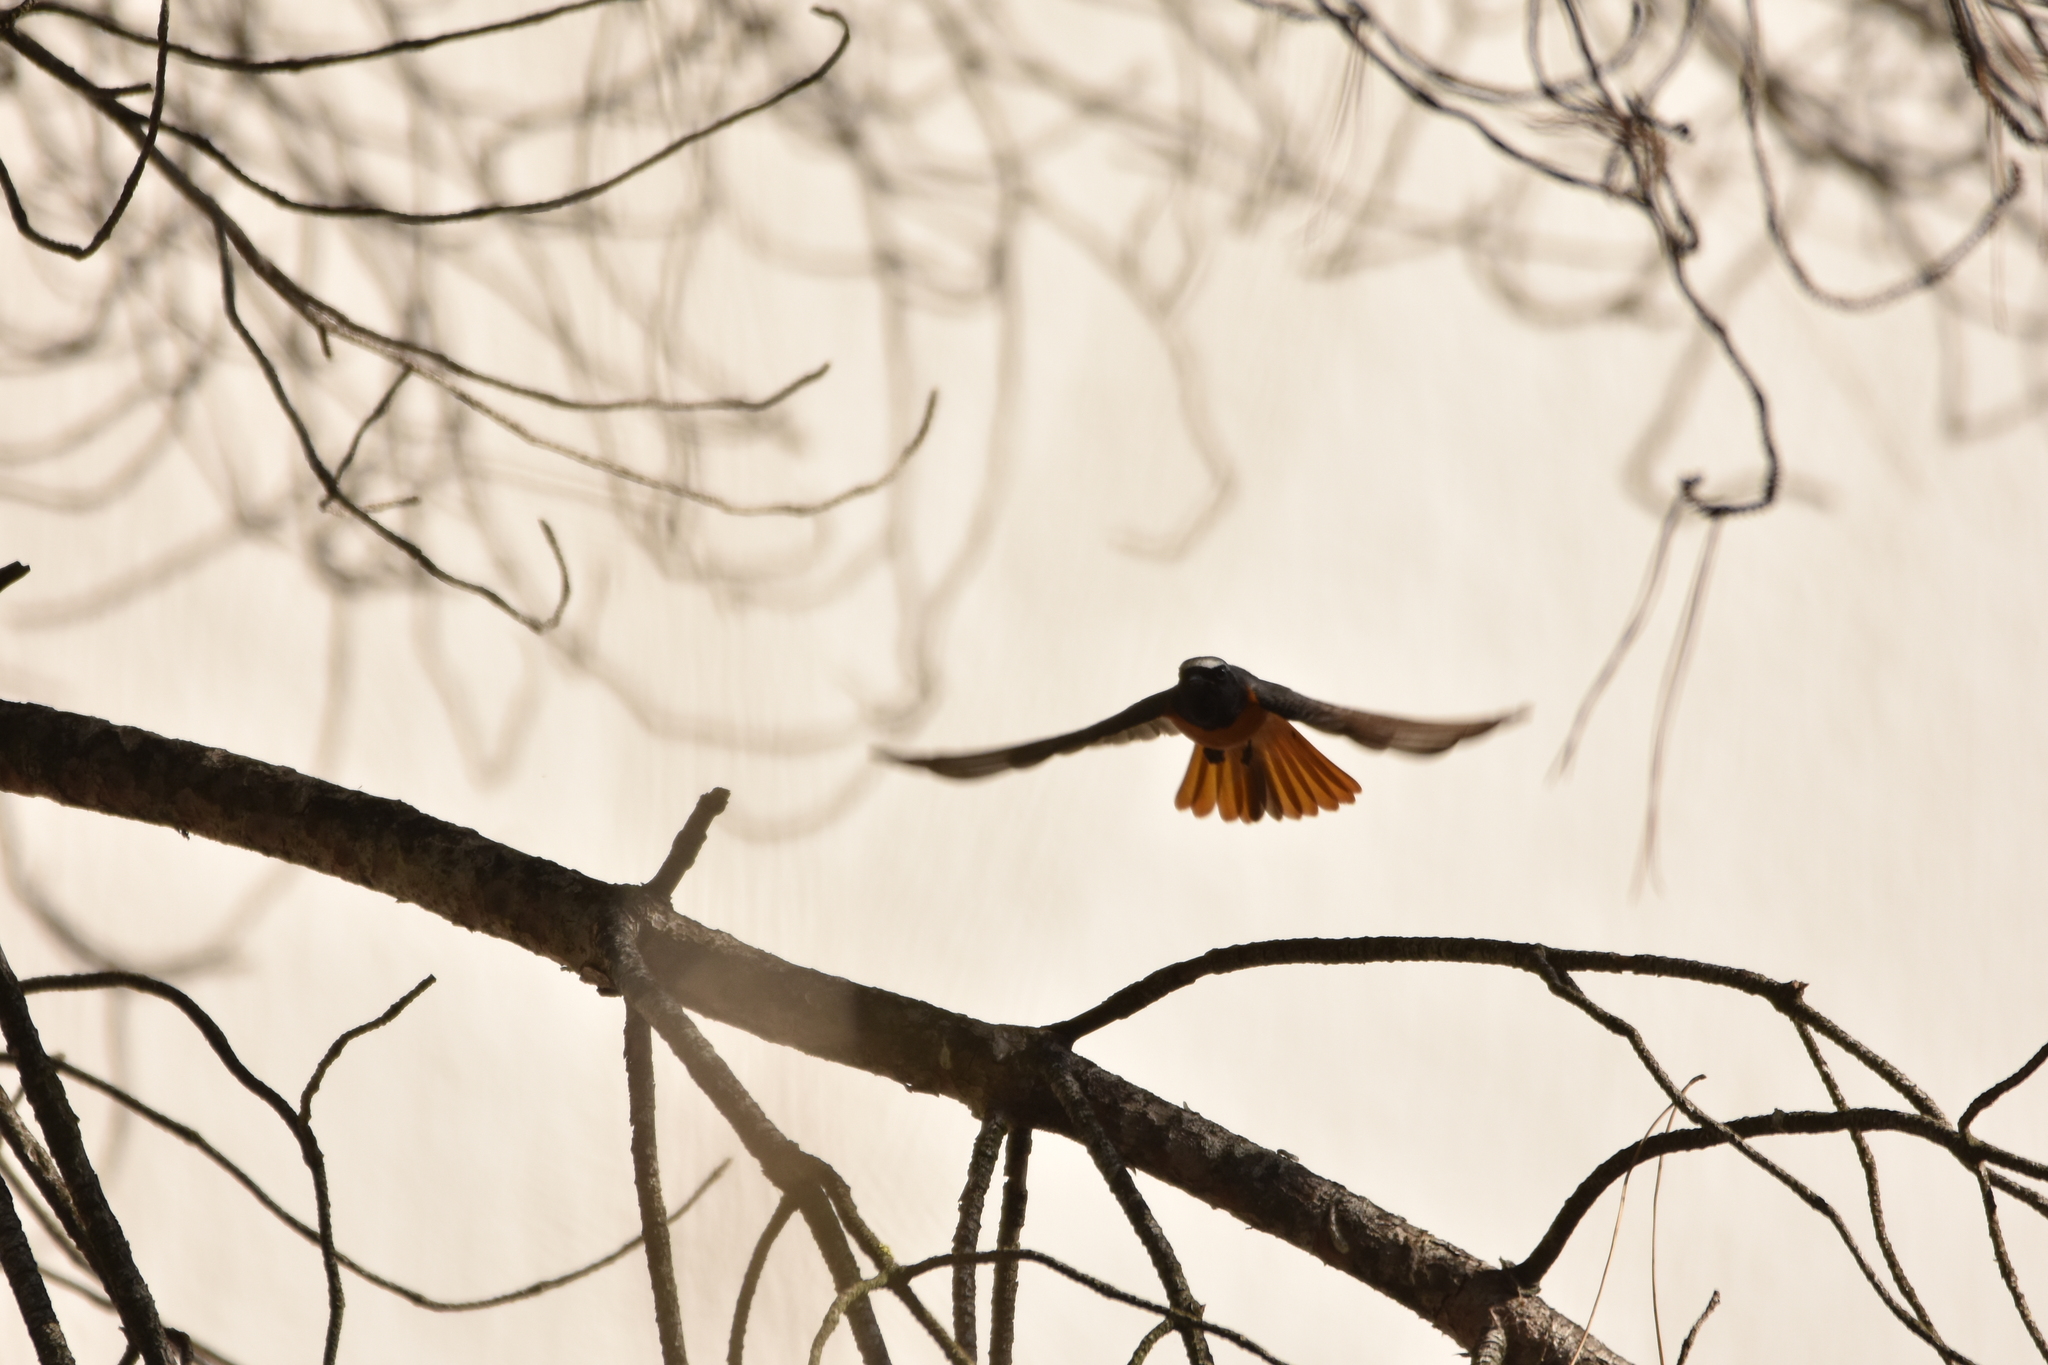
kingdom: Animalia
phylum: Chordata
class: Aves
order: Passeriformes
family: Muscicapidae
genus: Phoenicurus
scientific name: Phoenicurus phoenicurus
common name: Common redstart
